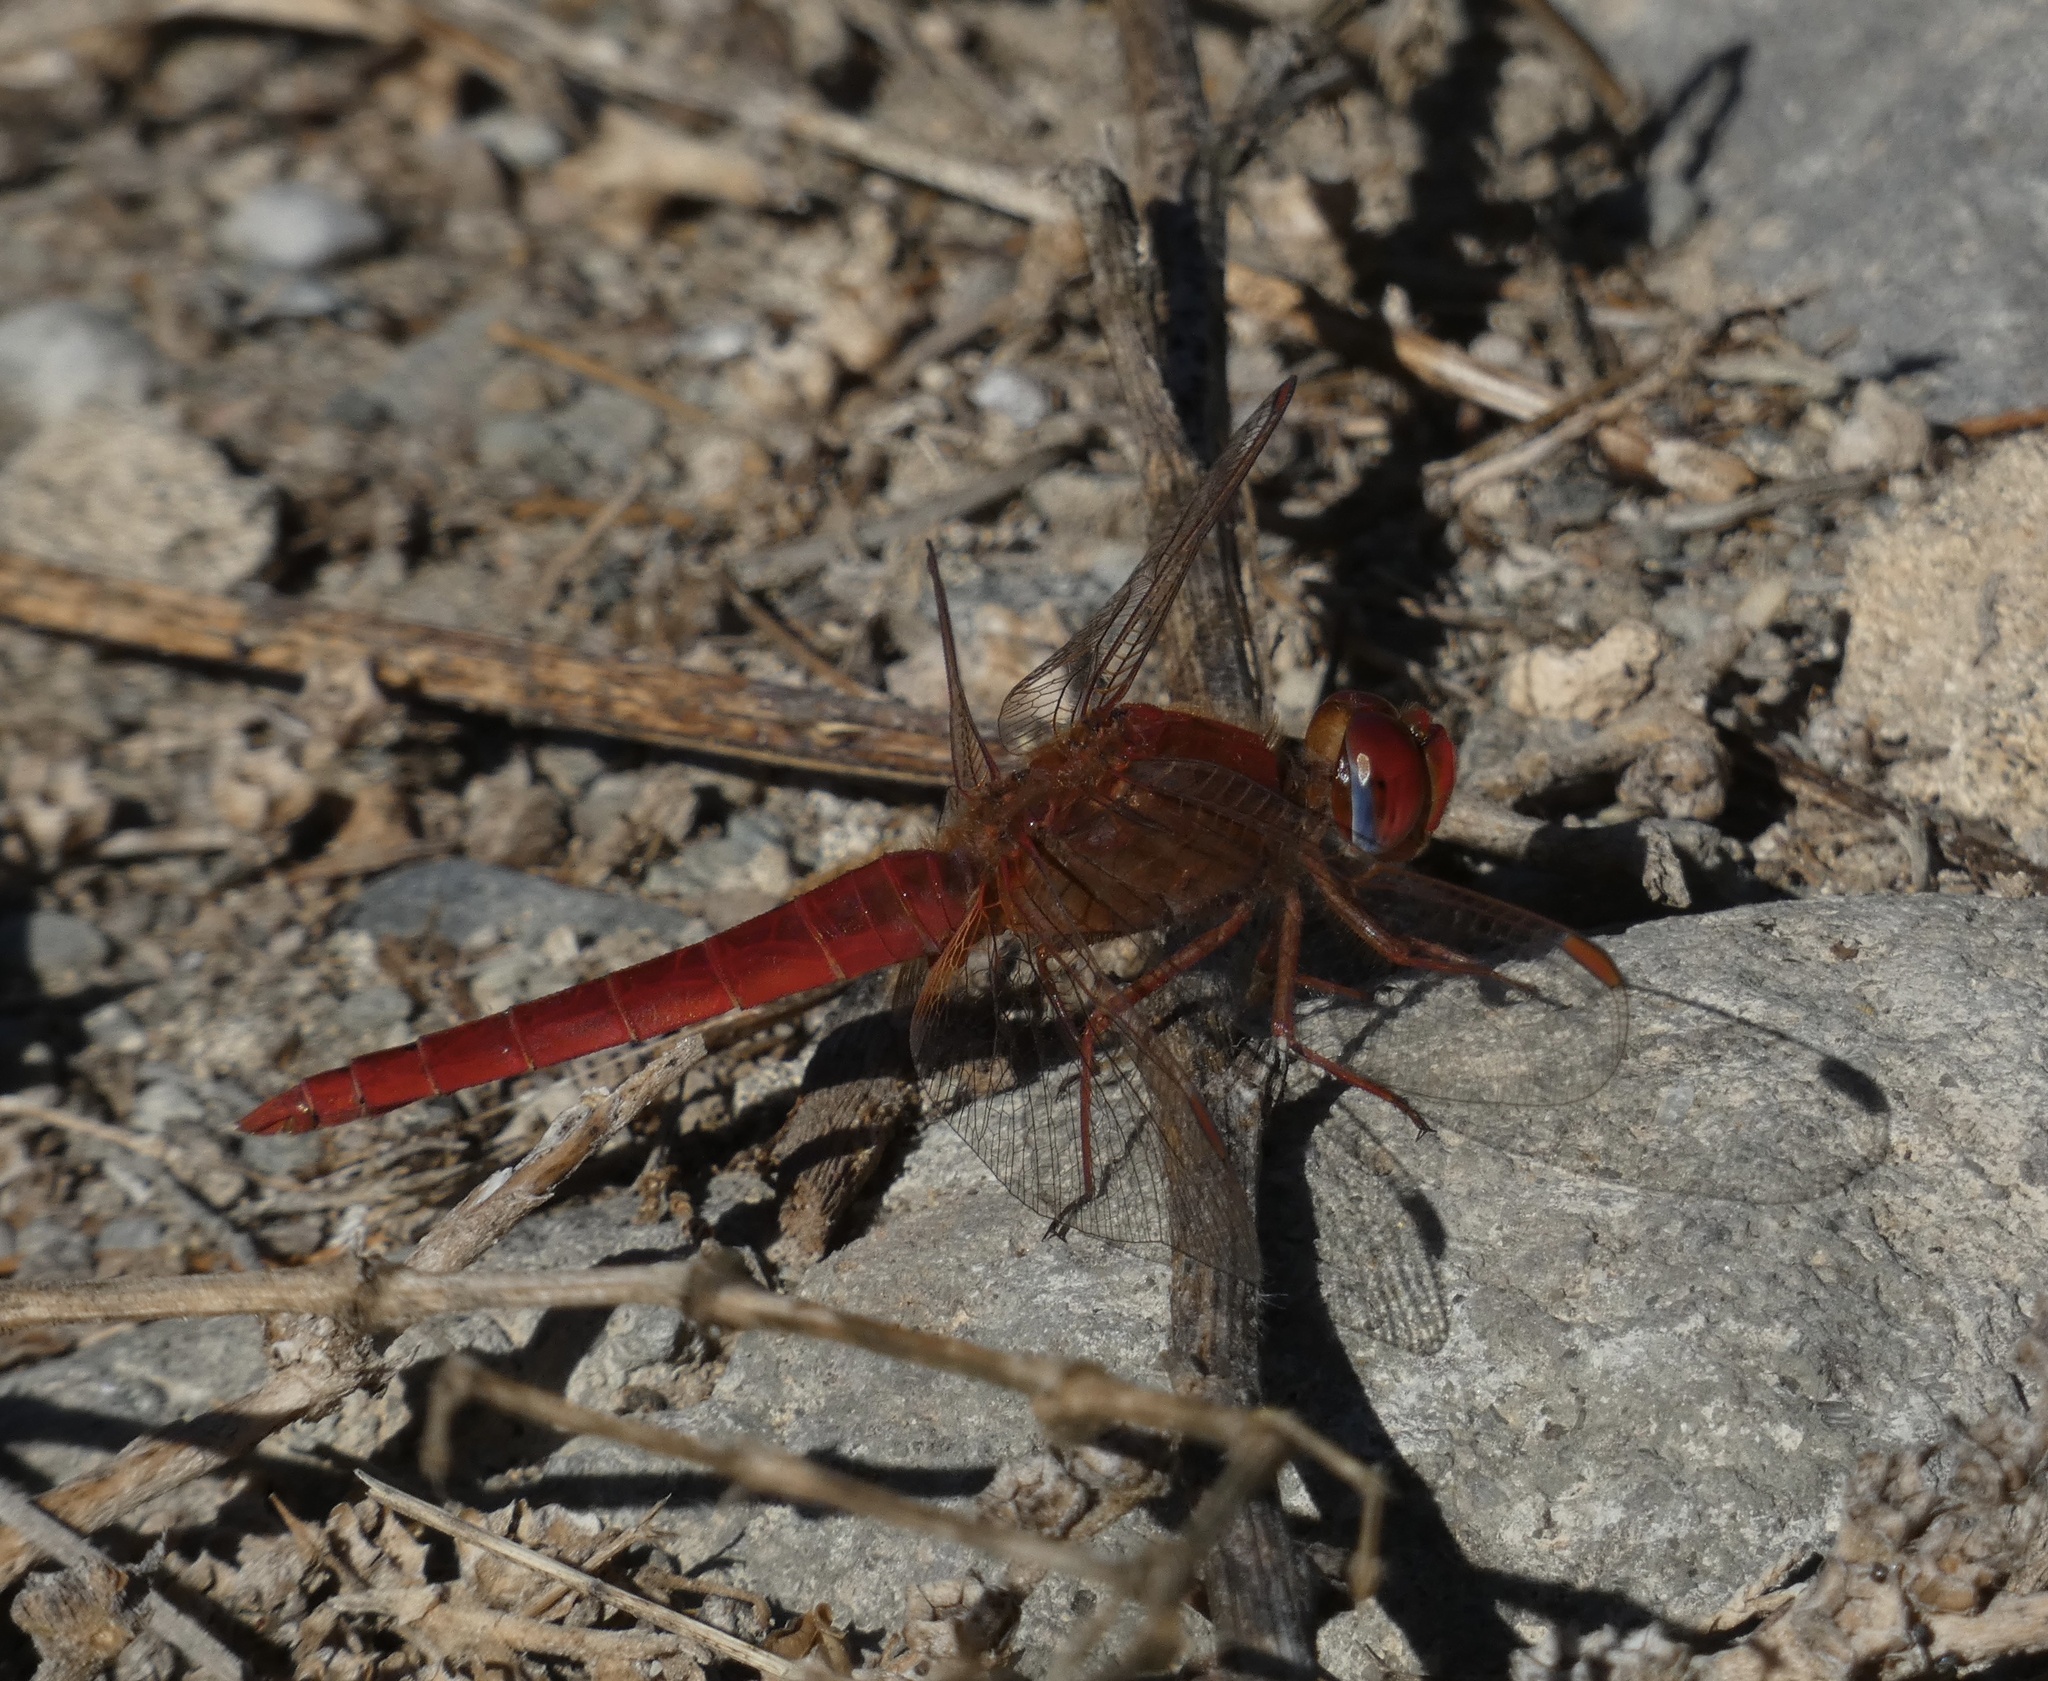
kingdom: Animalia
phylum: Arthropoda
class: Insecta
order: Odonata
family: Libellulidae
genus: Crocothemis
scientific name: Crocothemis erythraea
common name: Scarlet dragonfly
